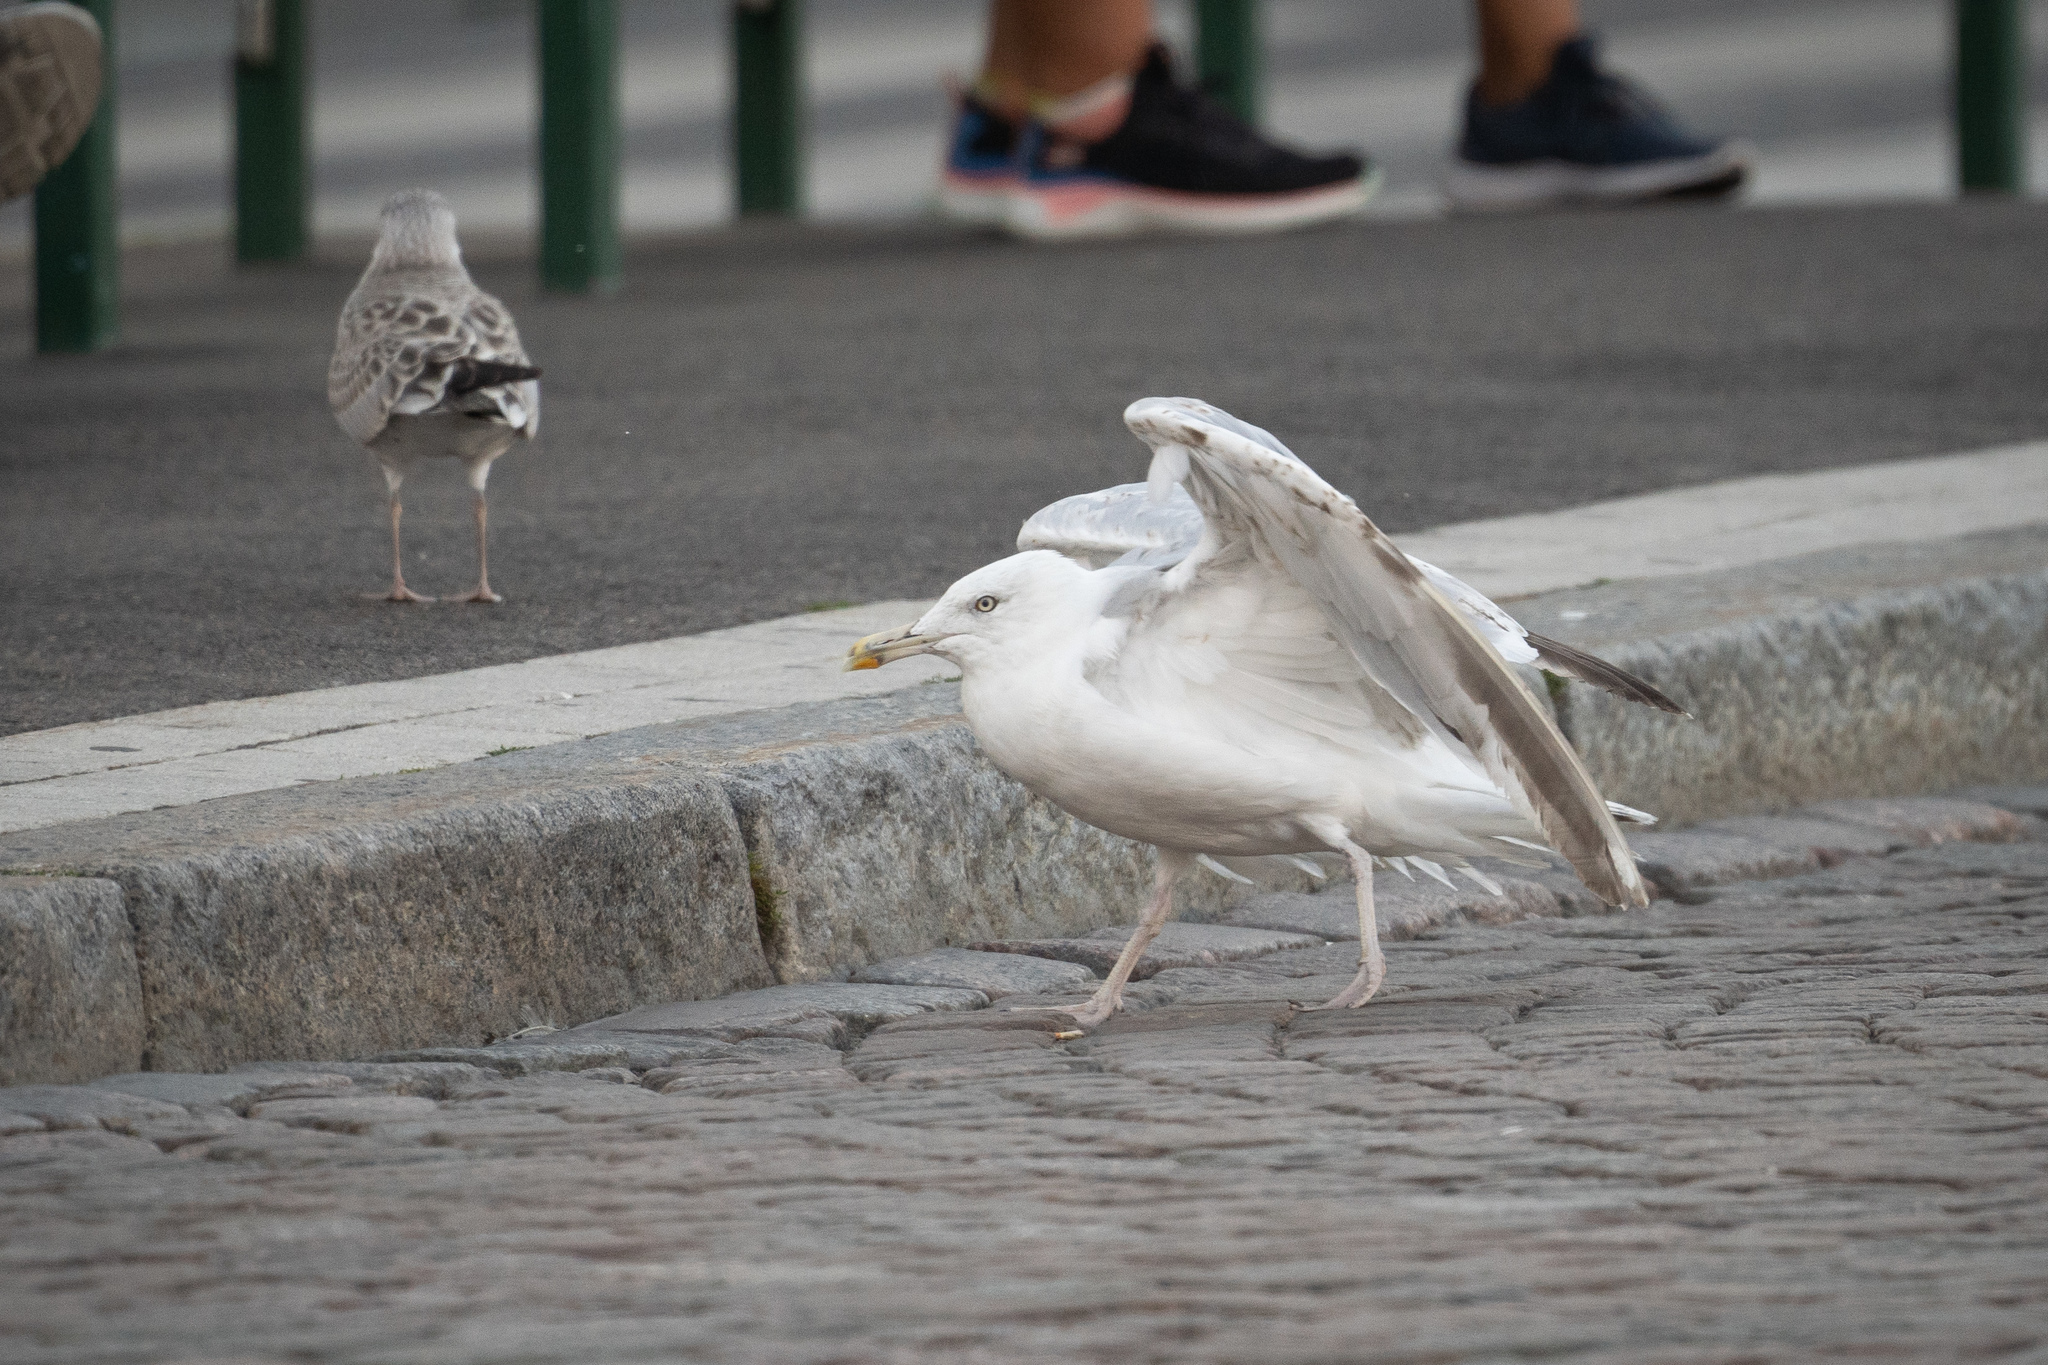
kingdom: Animalia
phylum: Chordata
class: Aves
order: Charadriiformes
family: Laridae
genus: Larus
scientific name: Larus argentatus
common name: Herring gull
